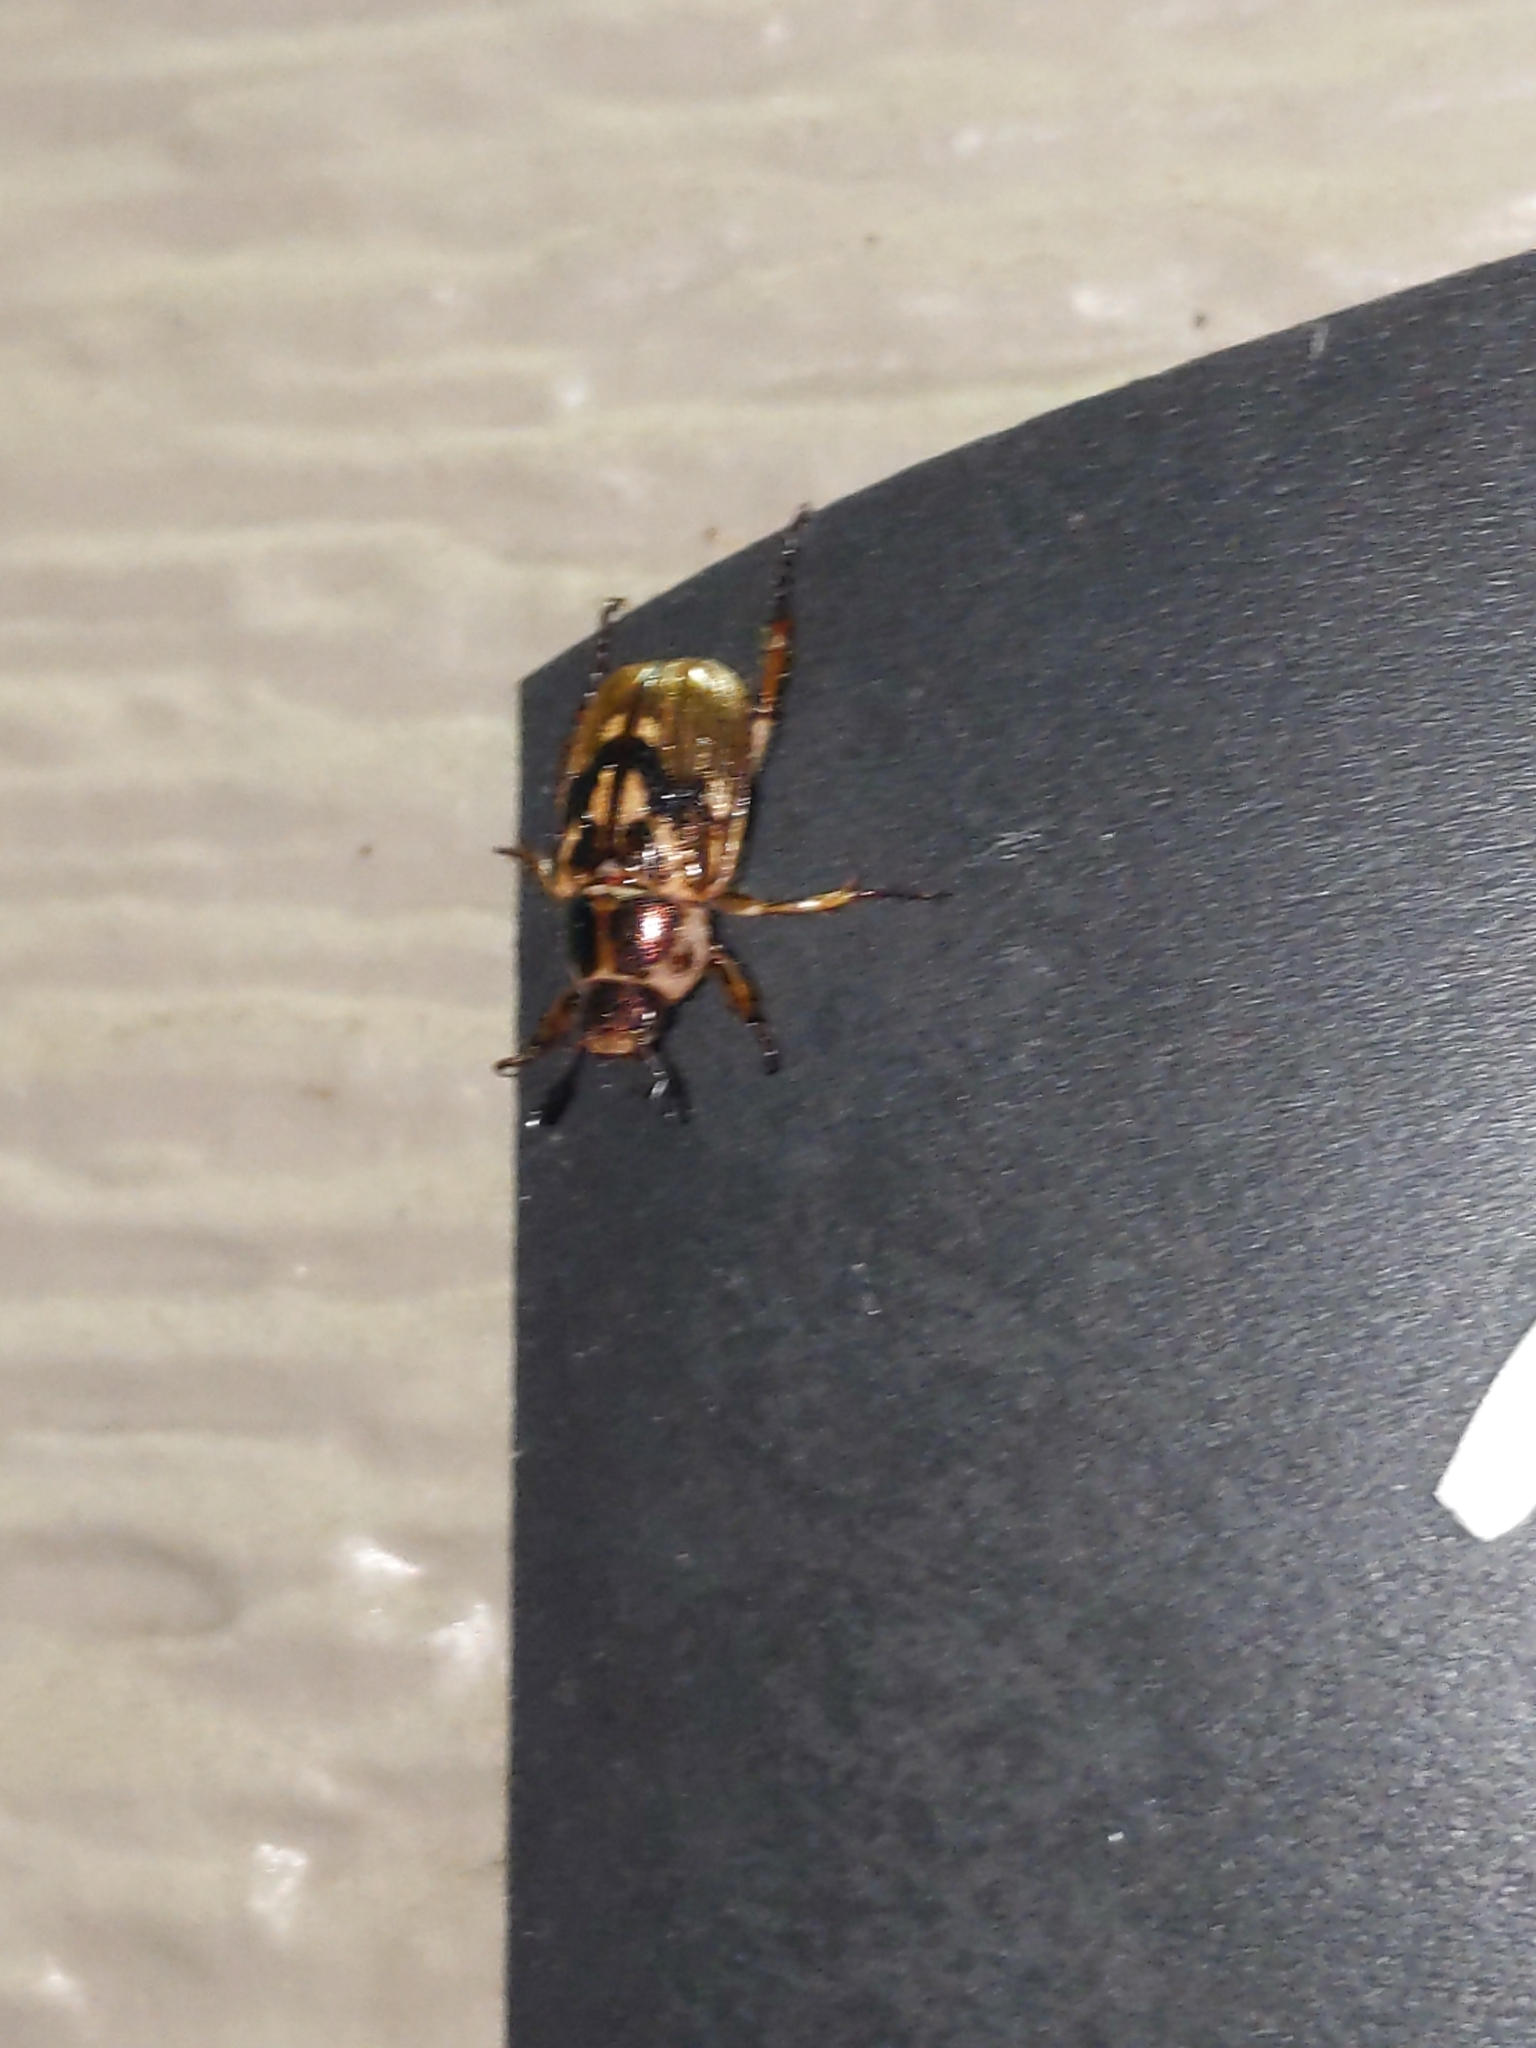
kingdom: Animalia
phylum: Arthropoda
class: Insecta
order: Coleoptera
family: Scarabaeidae
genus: Exomala
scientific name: Exomala orientalis
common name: Oriental beetle
